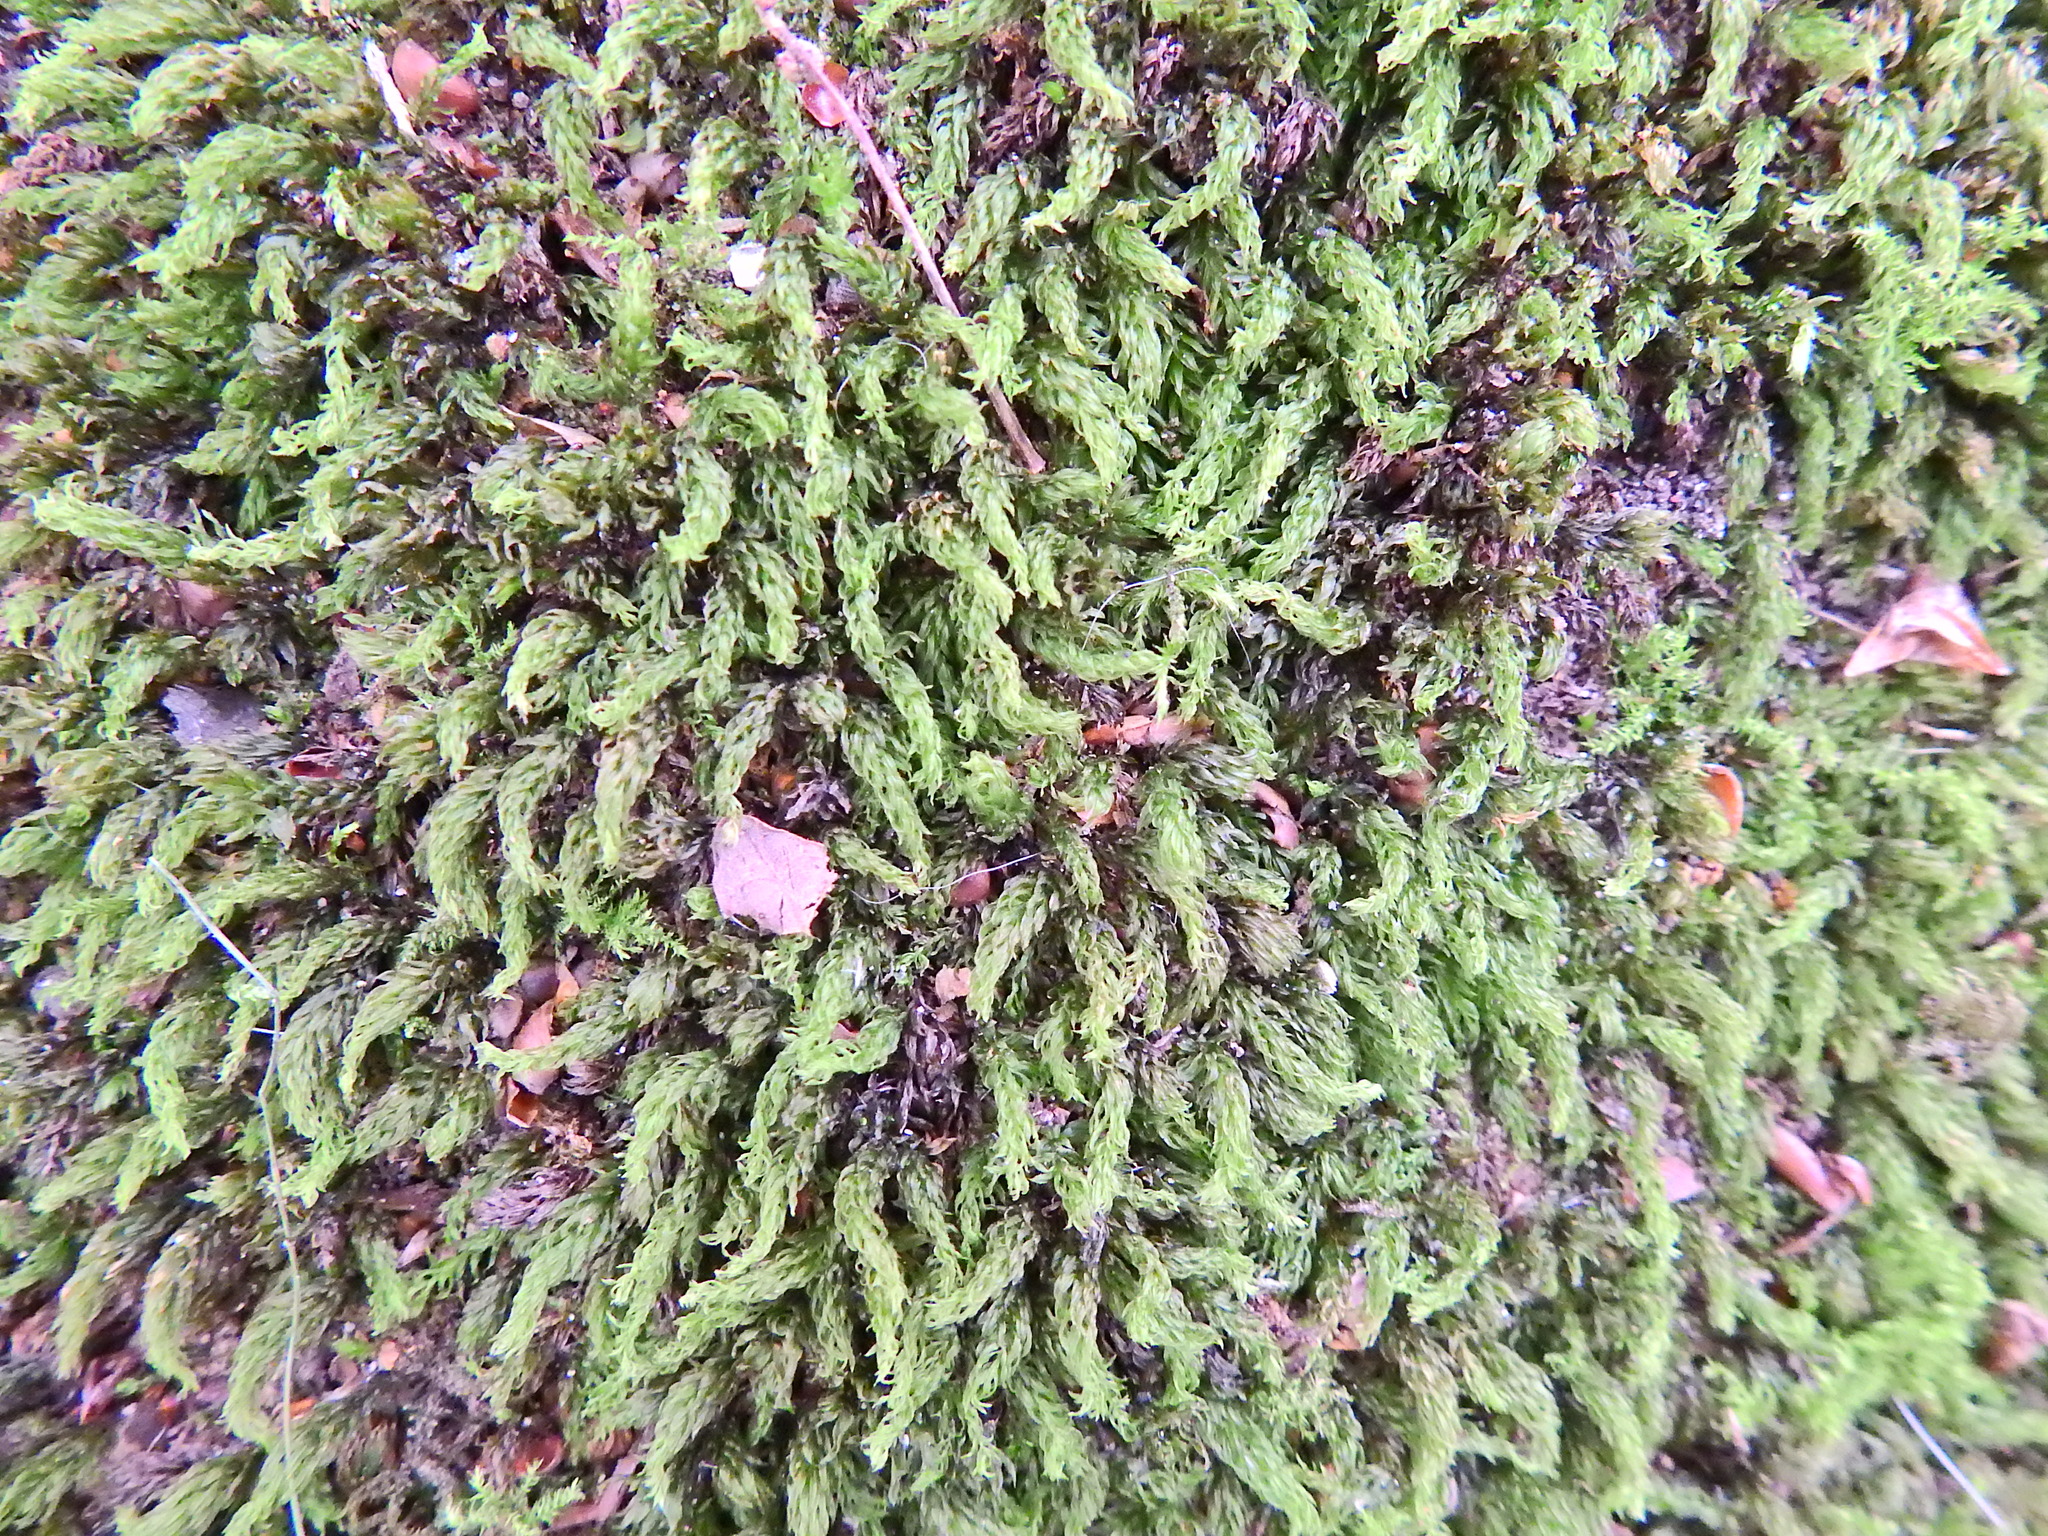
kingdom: Plantae
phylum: Bryophyta
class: Bryopsida
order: Bryales
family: Mniaceae
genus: Mnium
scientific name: Mnium hornum
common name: Swan's-neck leafy moss
